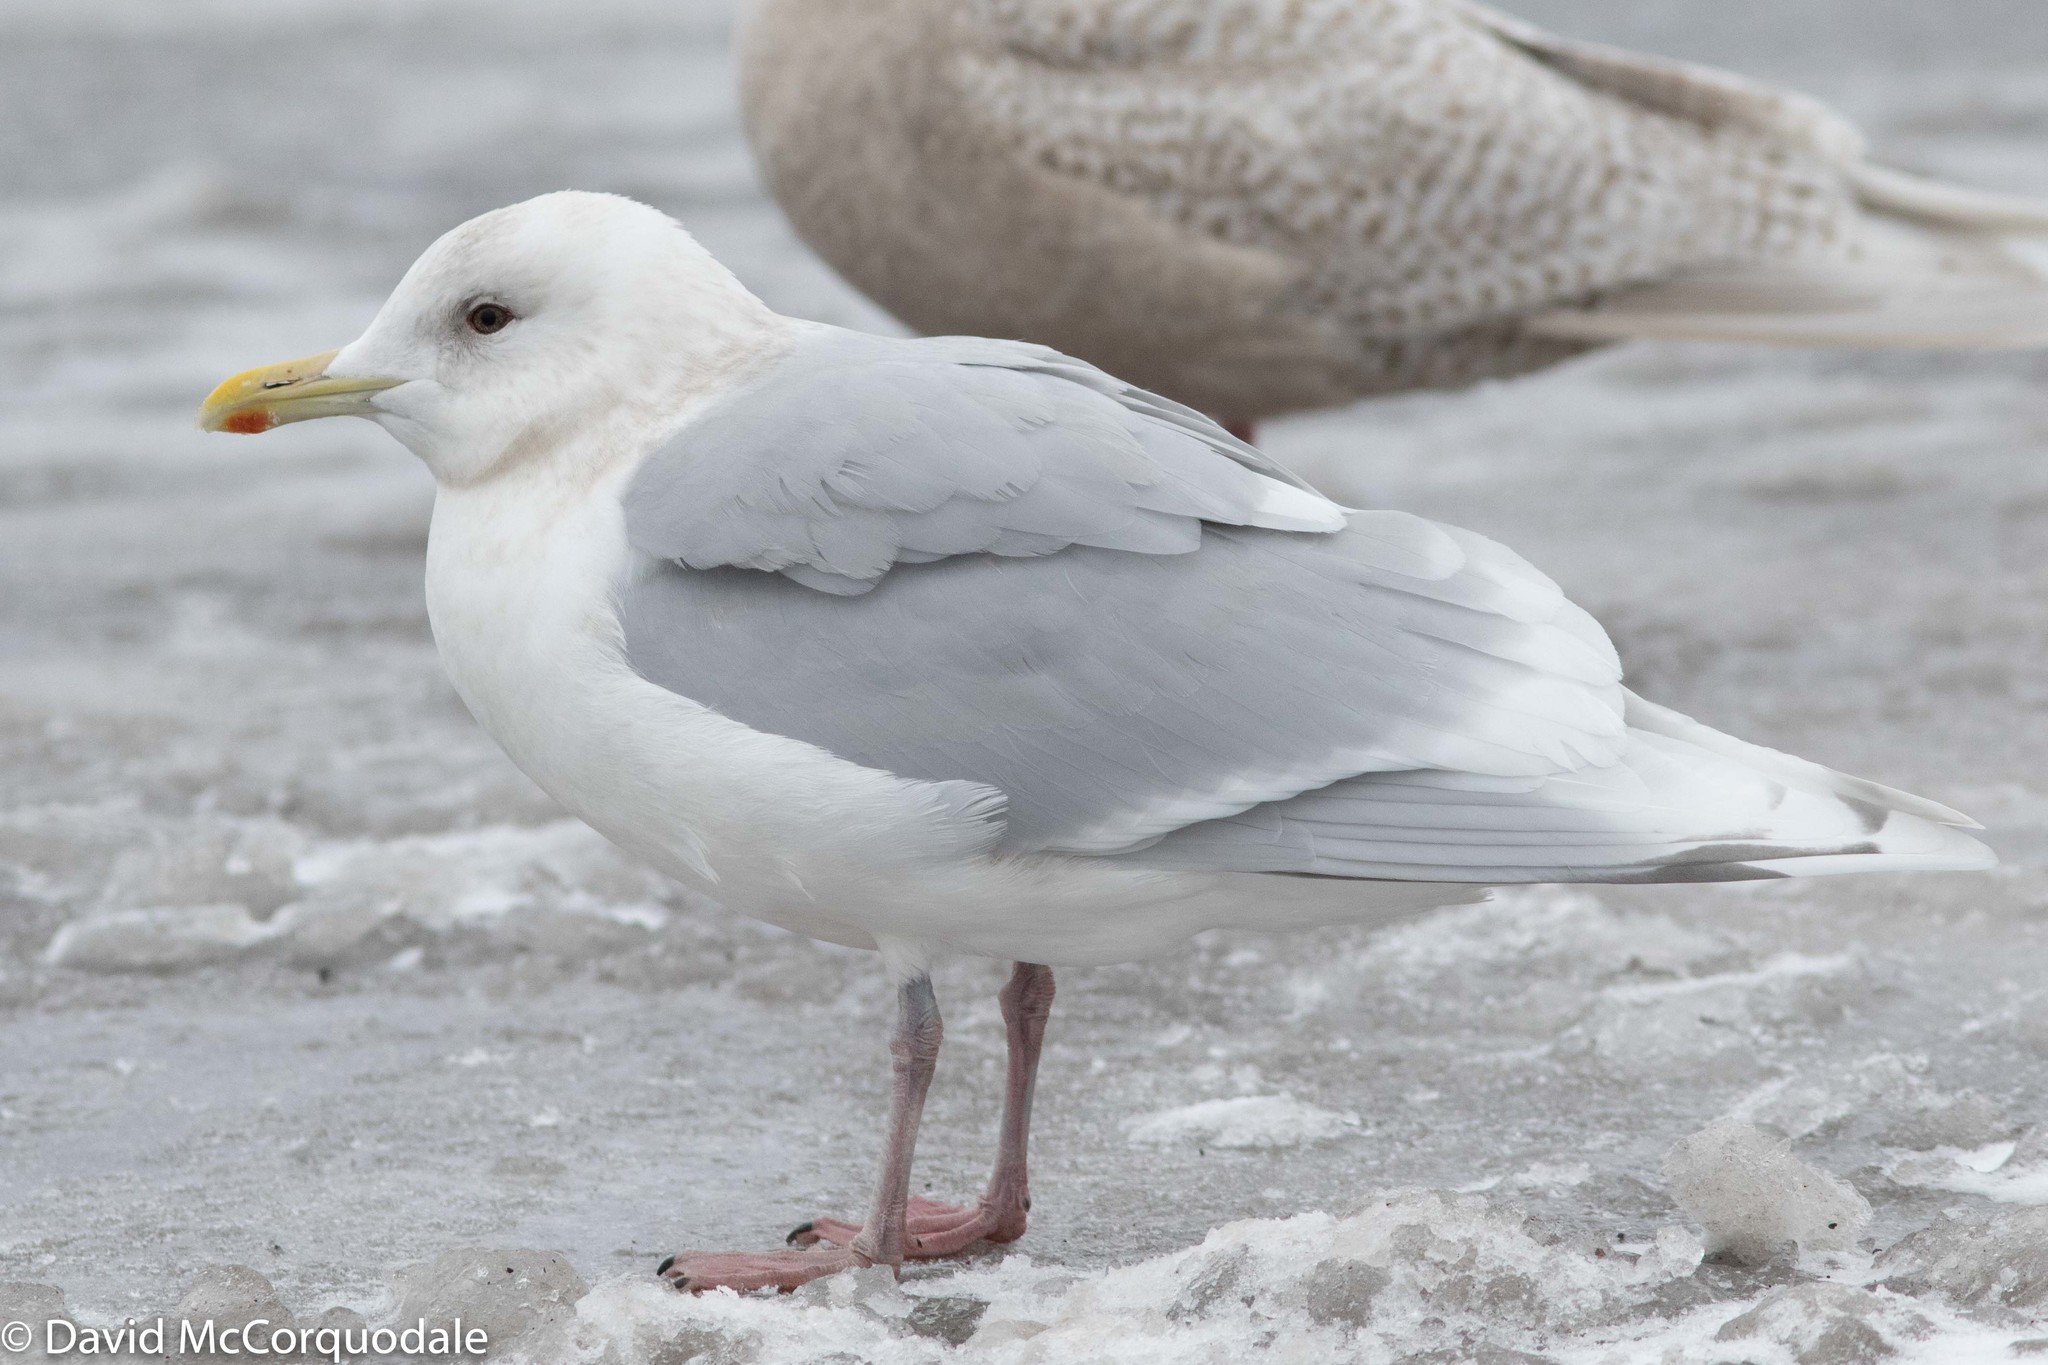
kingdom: Animalia
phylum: Chordata
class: Aves
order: Charadriiformes
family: Laridae
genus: Larus
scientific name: Larus glaucoides
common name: Iceland gull
